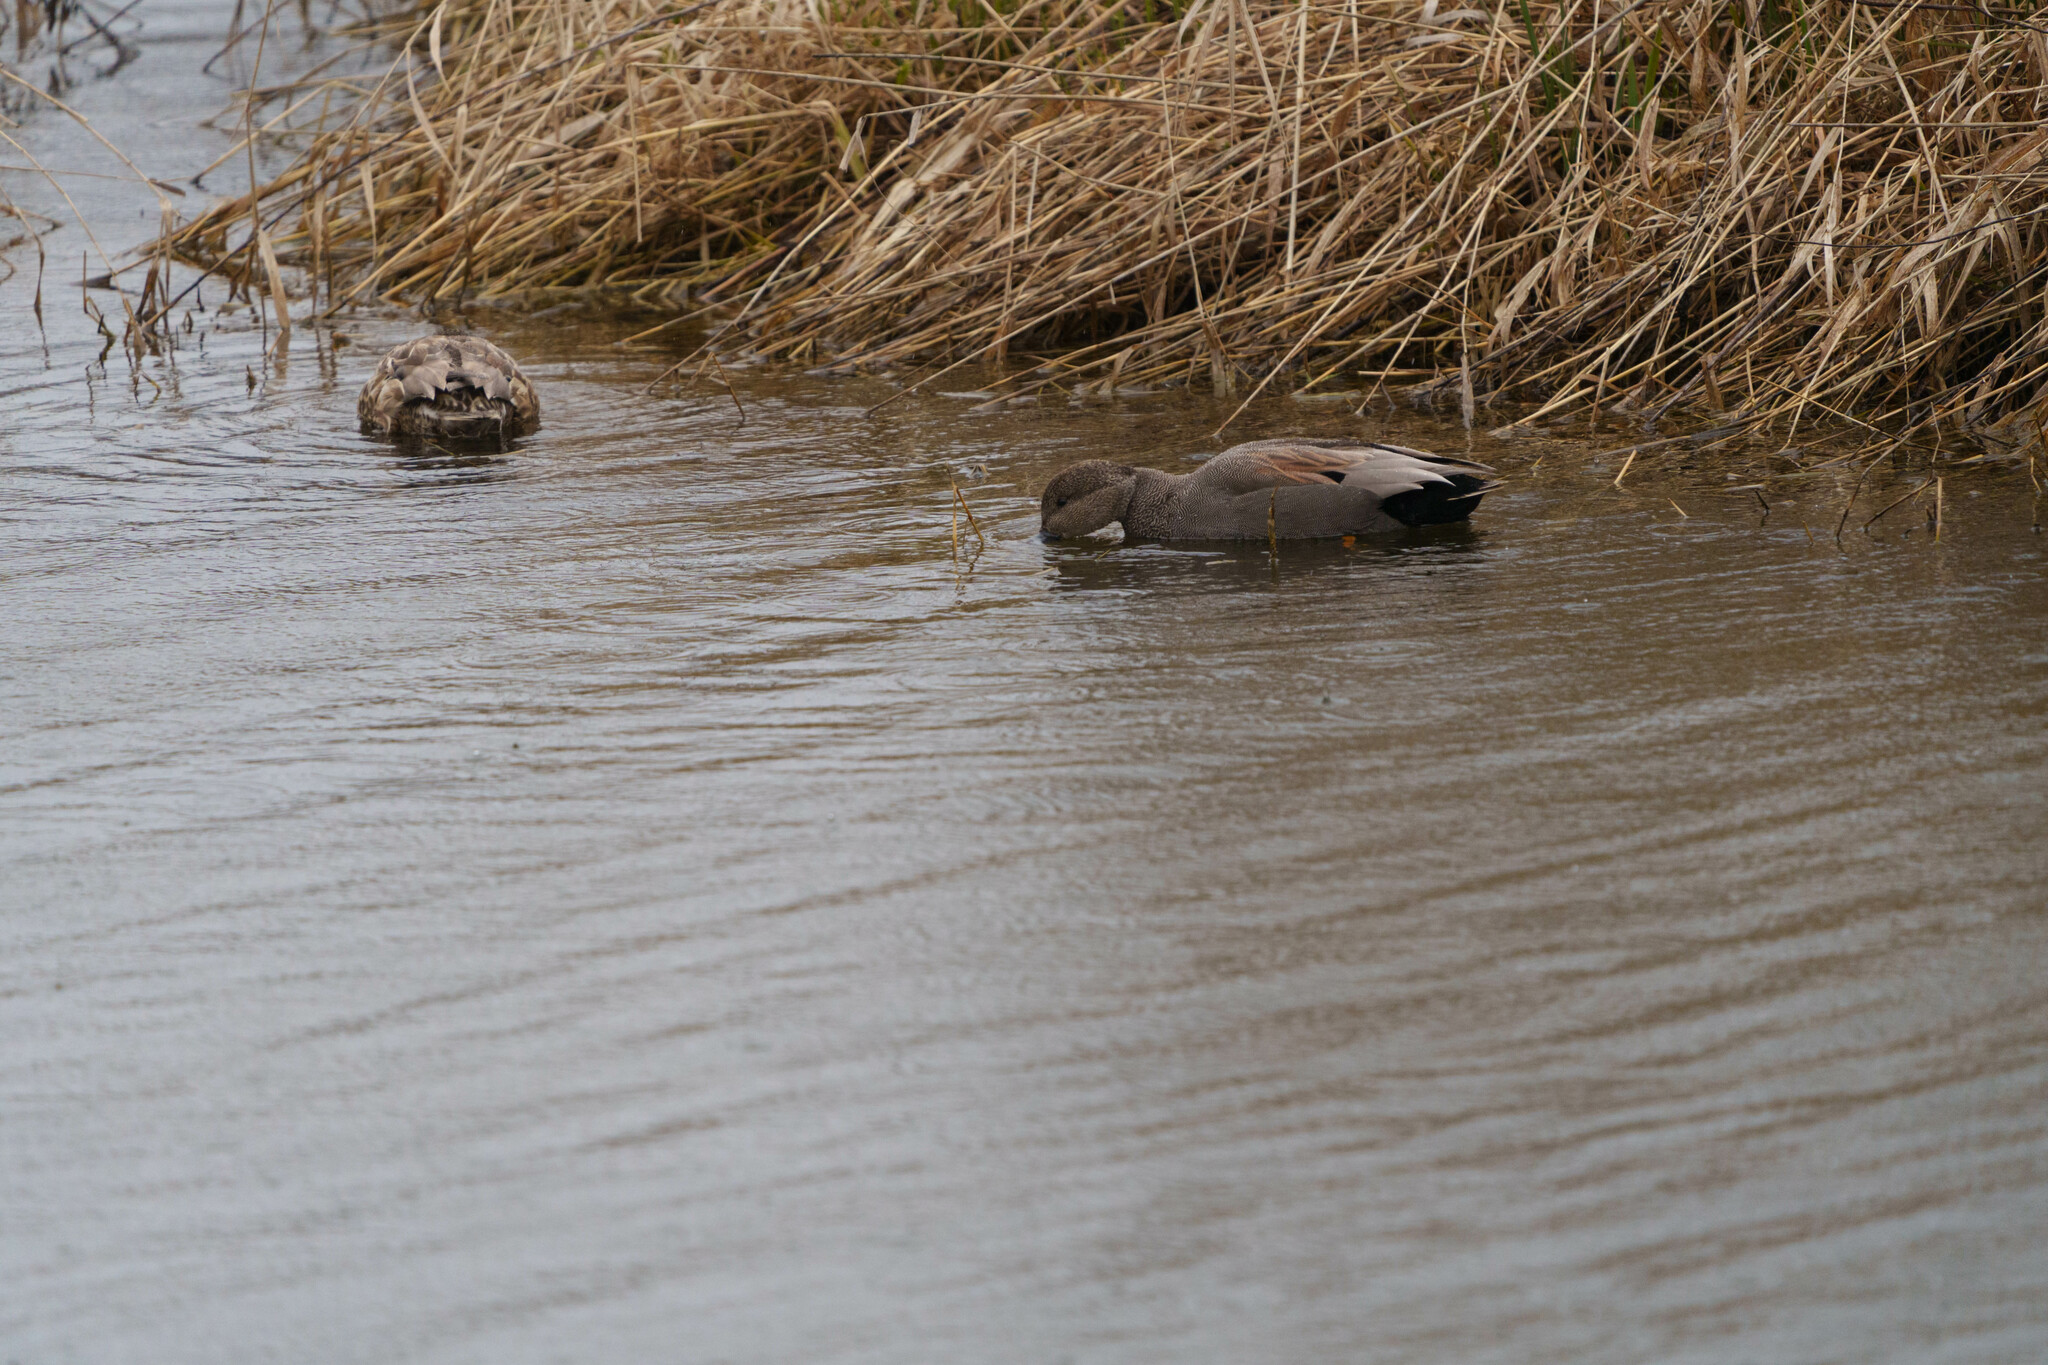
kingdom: Animalia
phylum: Chordata
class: Aves
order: Anseriformes
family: Anatidae
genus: Mareca
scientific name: Mareca strepera
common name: Gadwall
